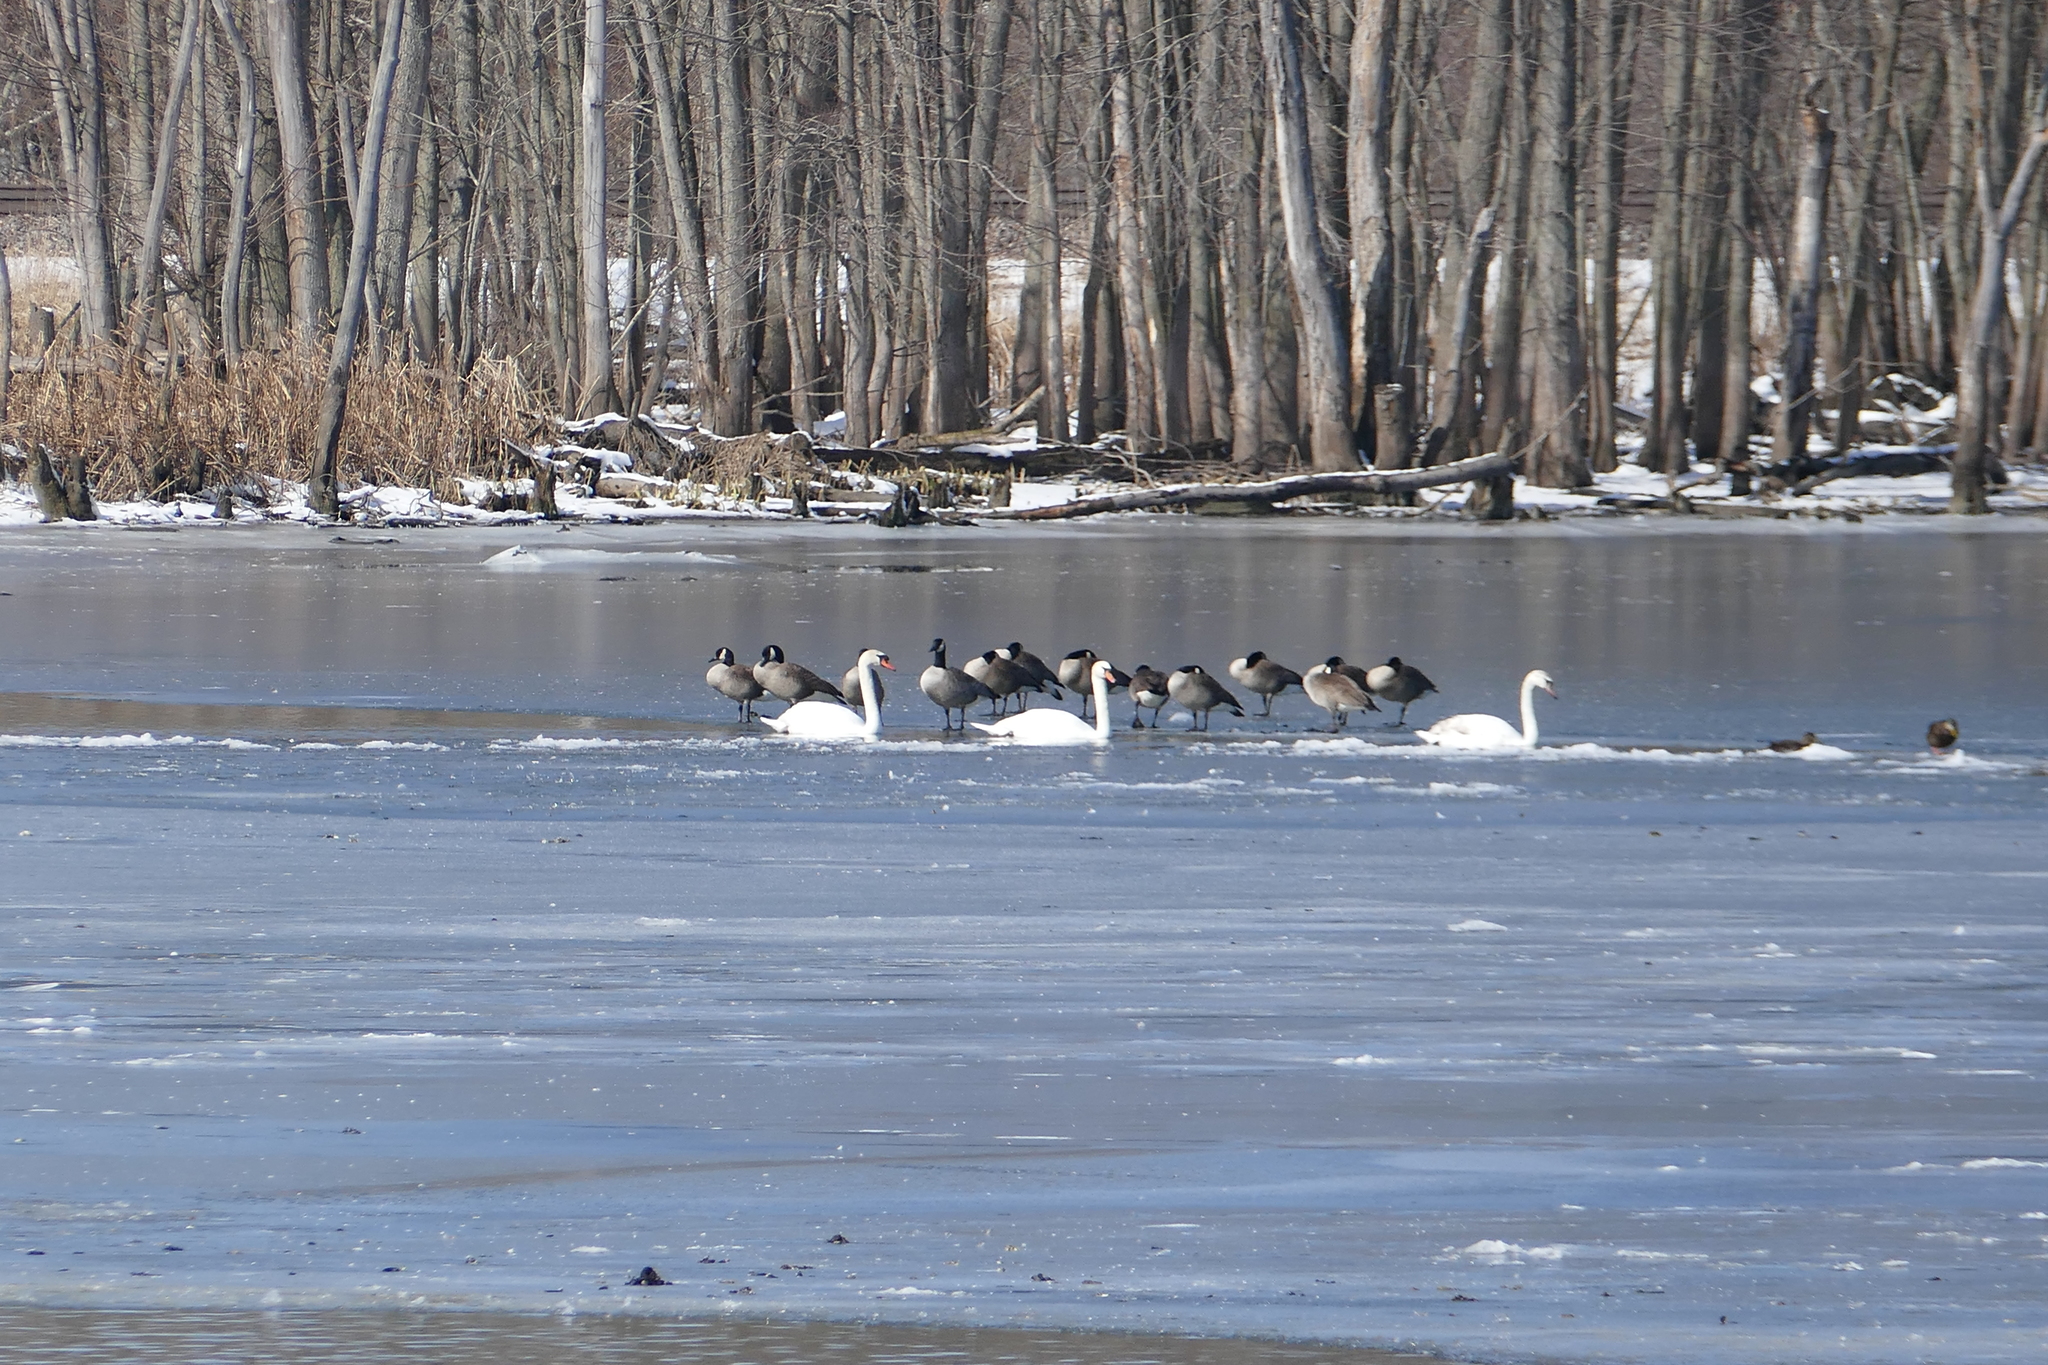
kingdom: Animalia
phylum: Chordata
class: Aves
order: Anseriformes
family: Anatidae
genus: Cygnus
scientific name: Cygnus olor
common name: Mute swan
